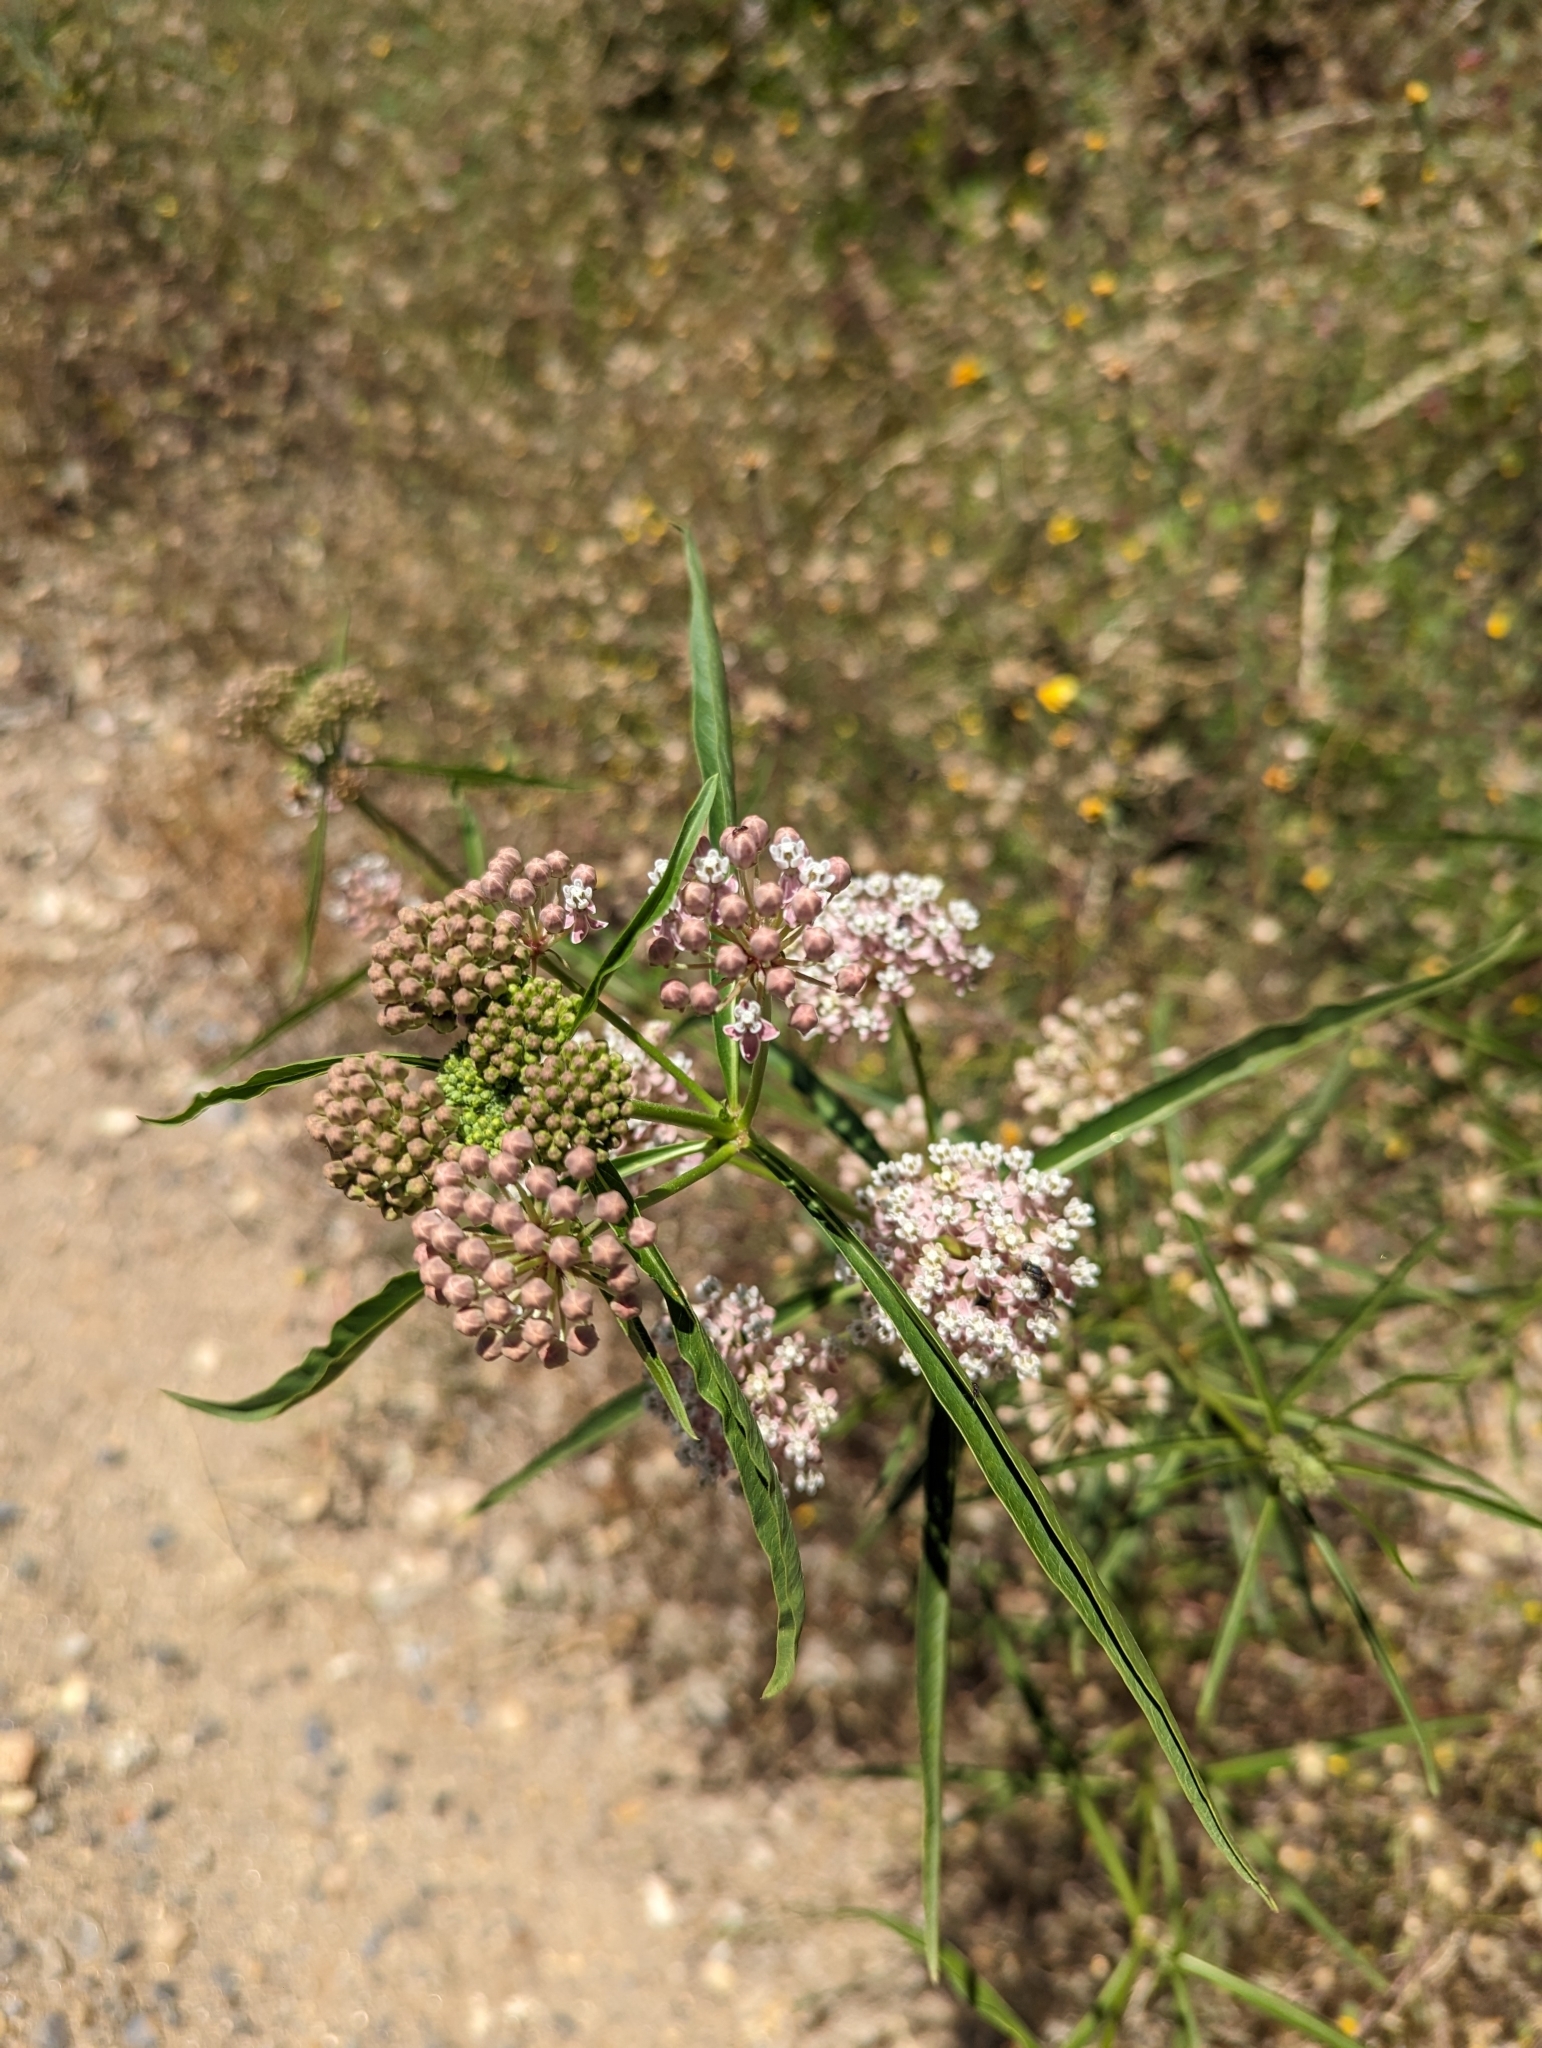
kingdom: Plantae
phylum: Tracheophyta
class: Magnoliopsida
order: Gentianales
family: Apocynaceae
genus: Asclepias
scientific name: Asclepias fascicularis
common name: Mexican milkweed
